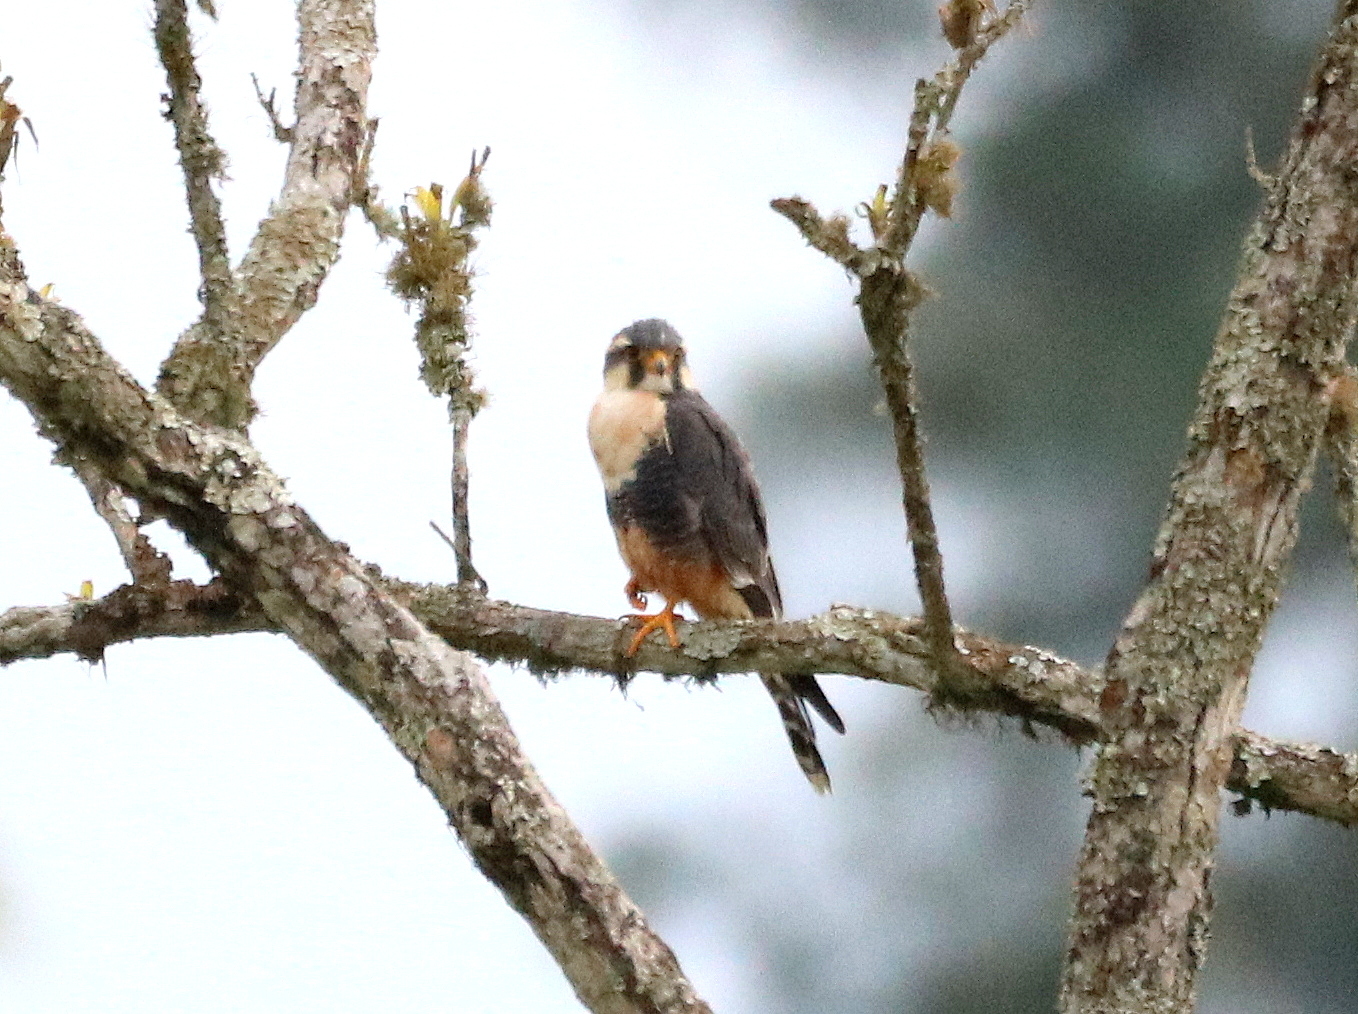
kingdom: Animalia
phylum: Chordata
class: Aves
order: Falconiformes
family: Falconidae
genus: Falco
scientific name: Falco femoralis
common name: Aplomado falcon
